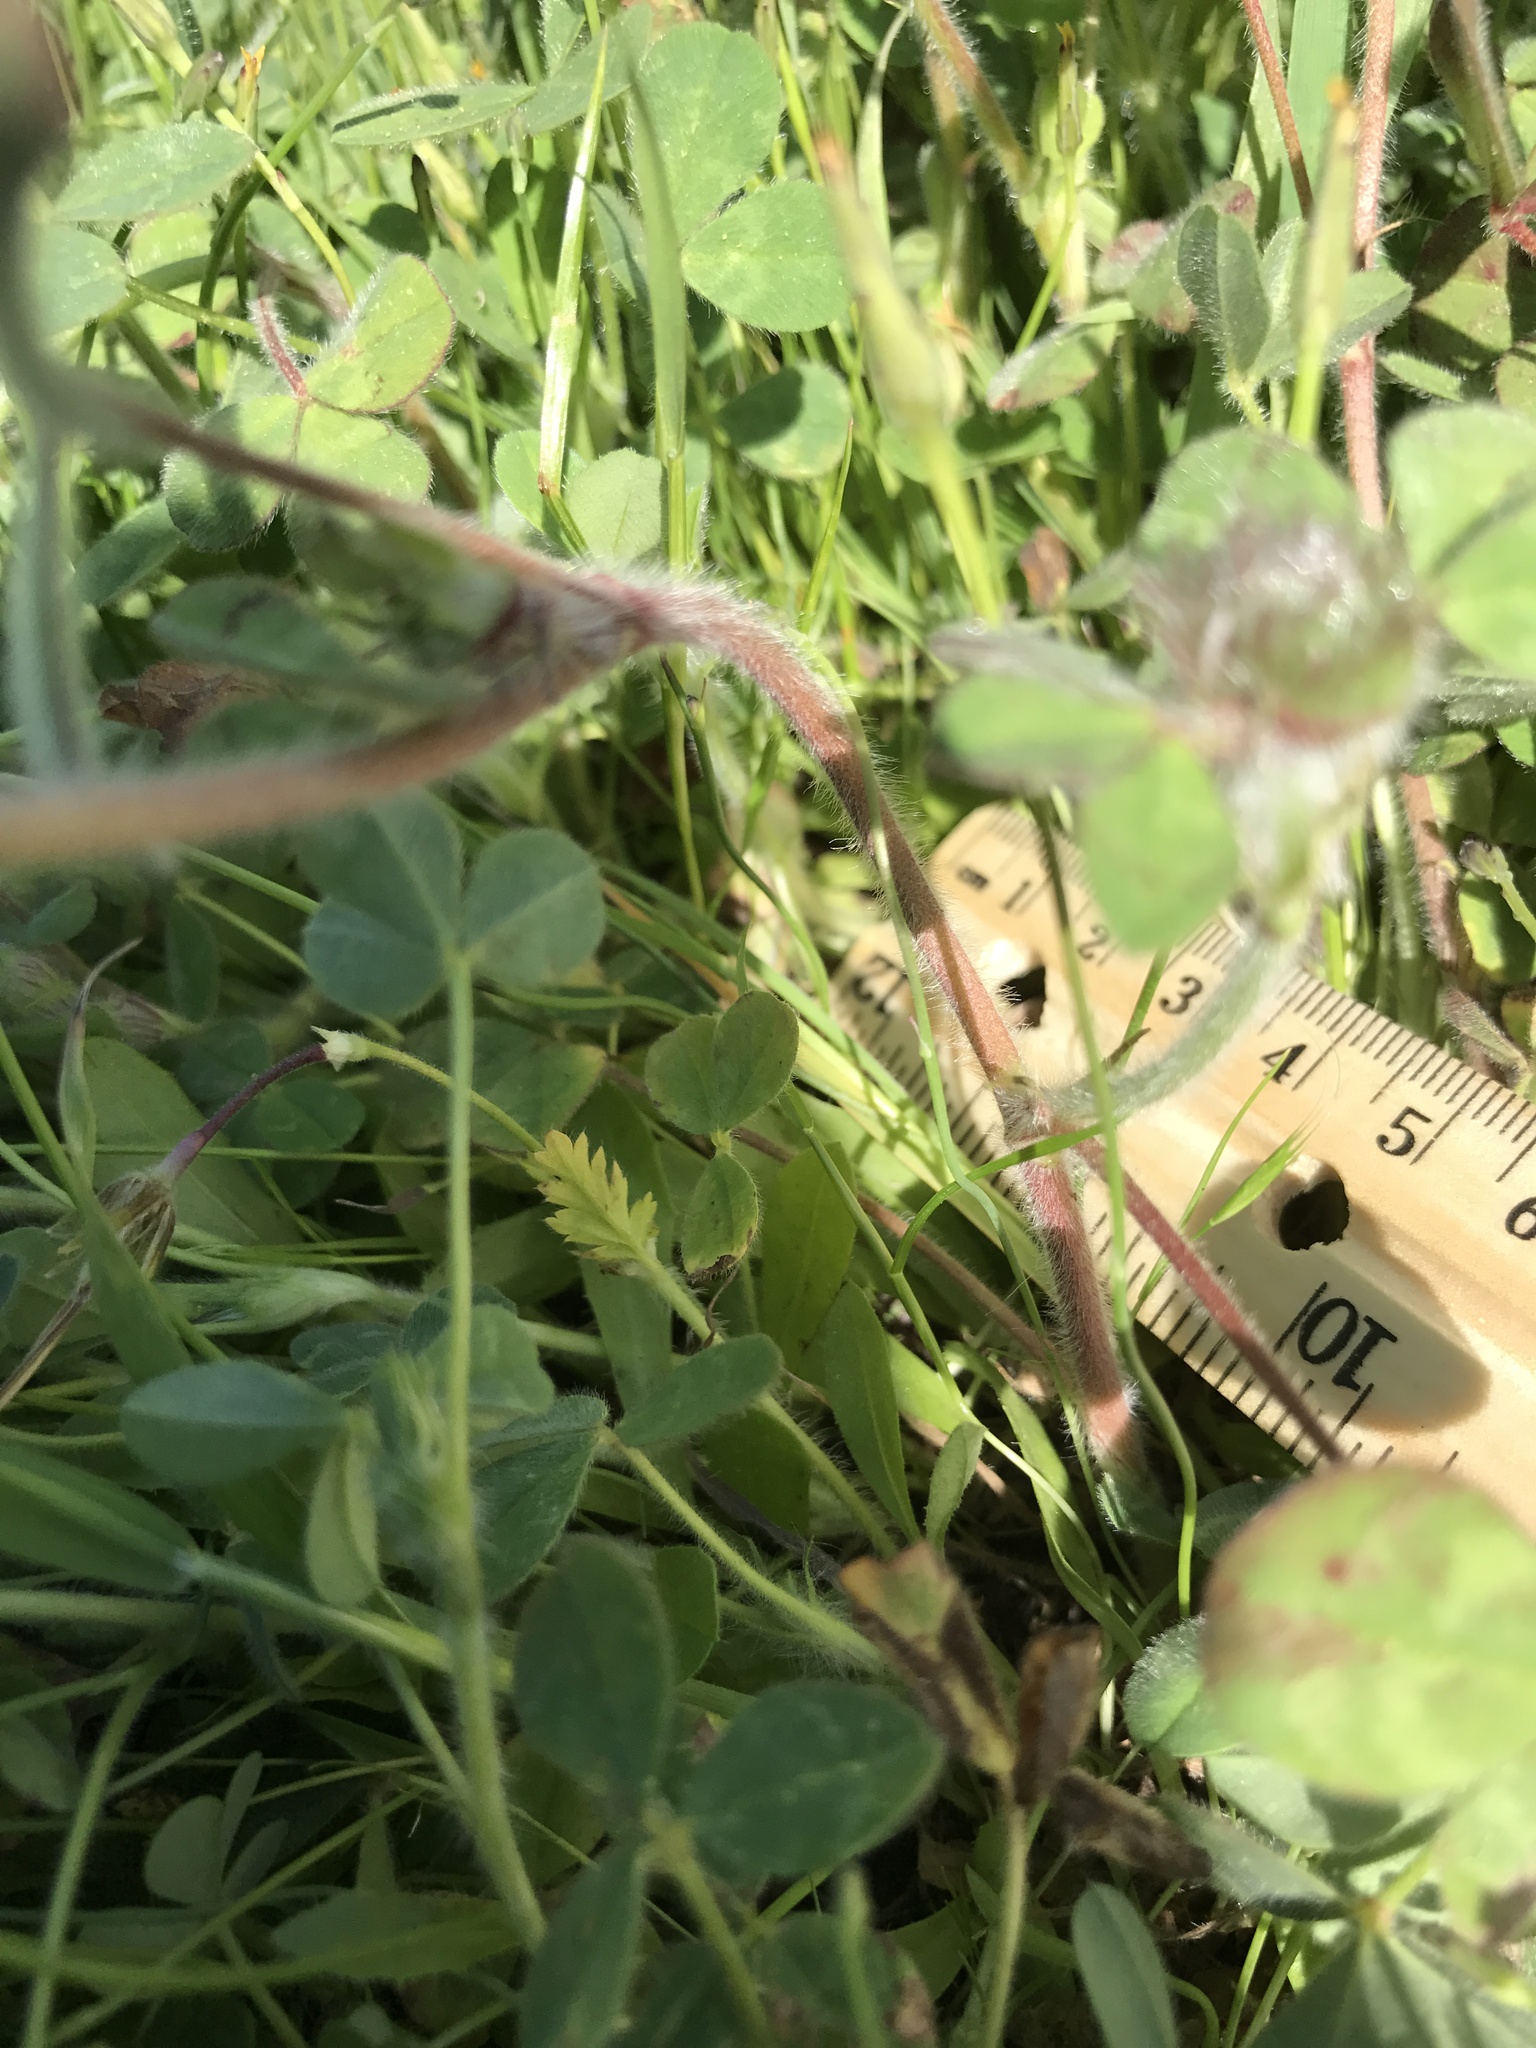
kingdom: Plantae
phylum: Tracheophyta
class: Magnoliopsida
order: Fabales
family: Fabaceae
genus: Trifolium
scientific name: Trifolium hirtum
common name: Rose clover
